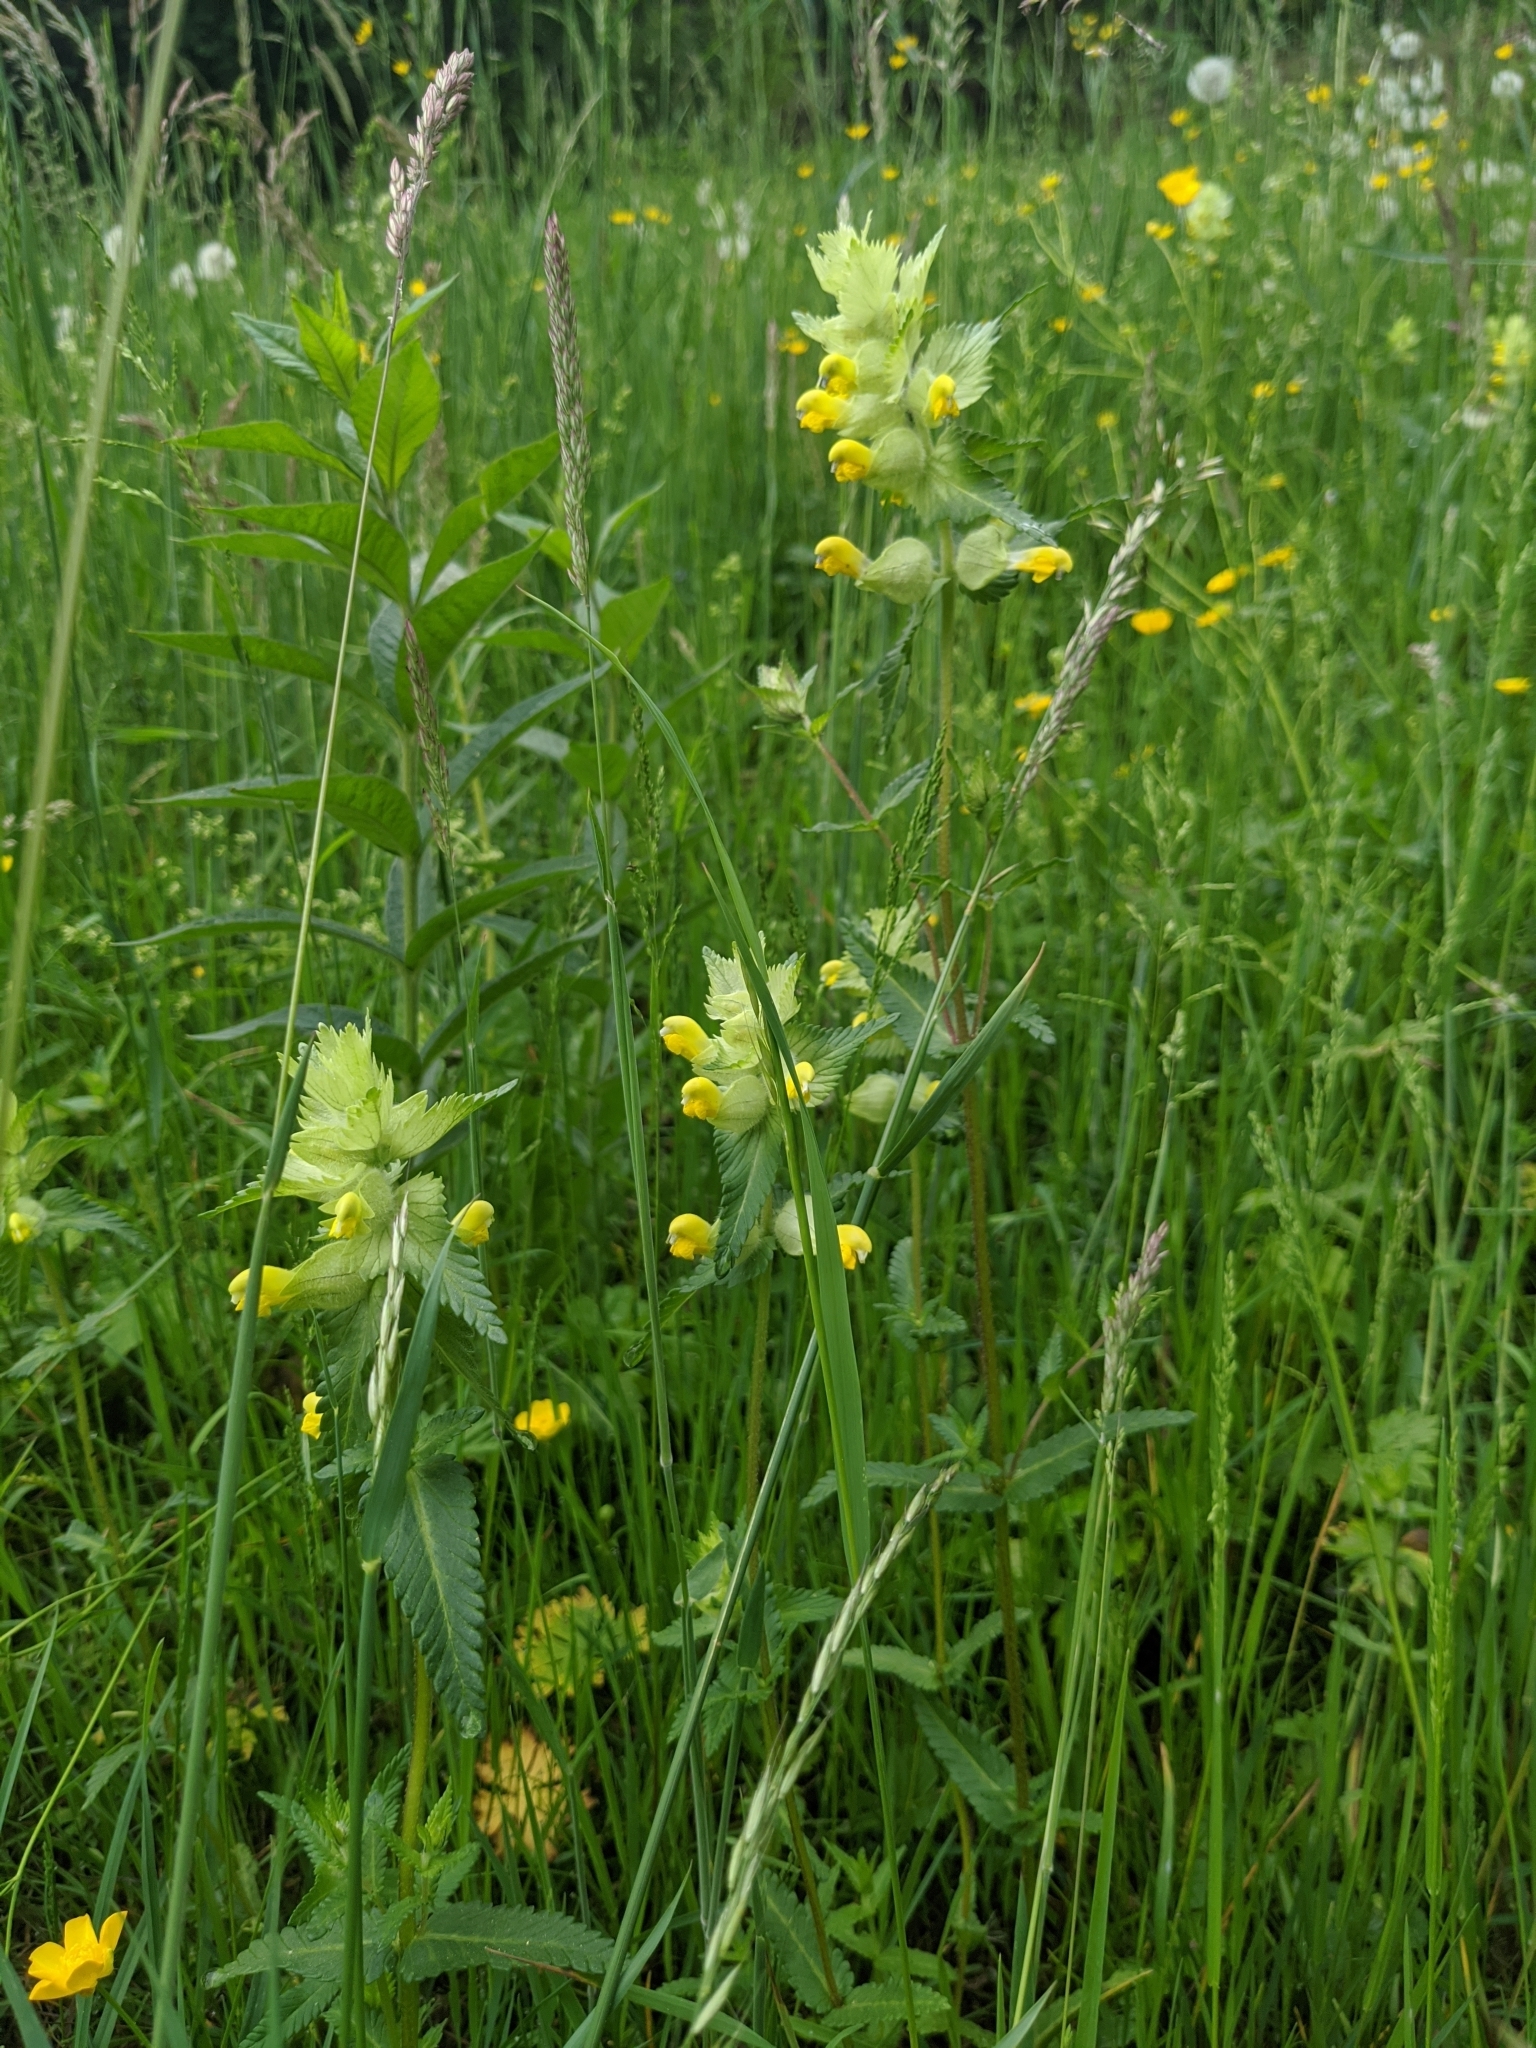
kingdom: Plantae
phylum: Tracheophyta
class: Magnoliopsida
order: Lamiales
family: Orobanchaceae
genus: Rhinanthus
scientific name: Rhinanthus alectorolophus
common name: Greater yellow-rattle
